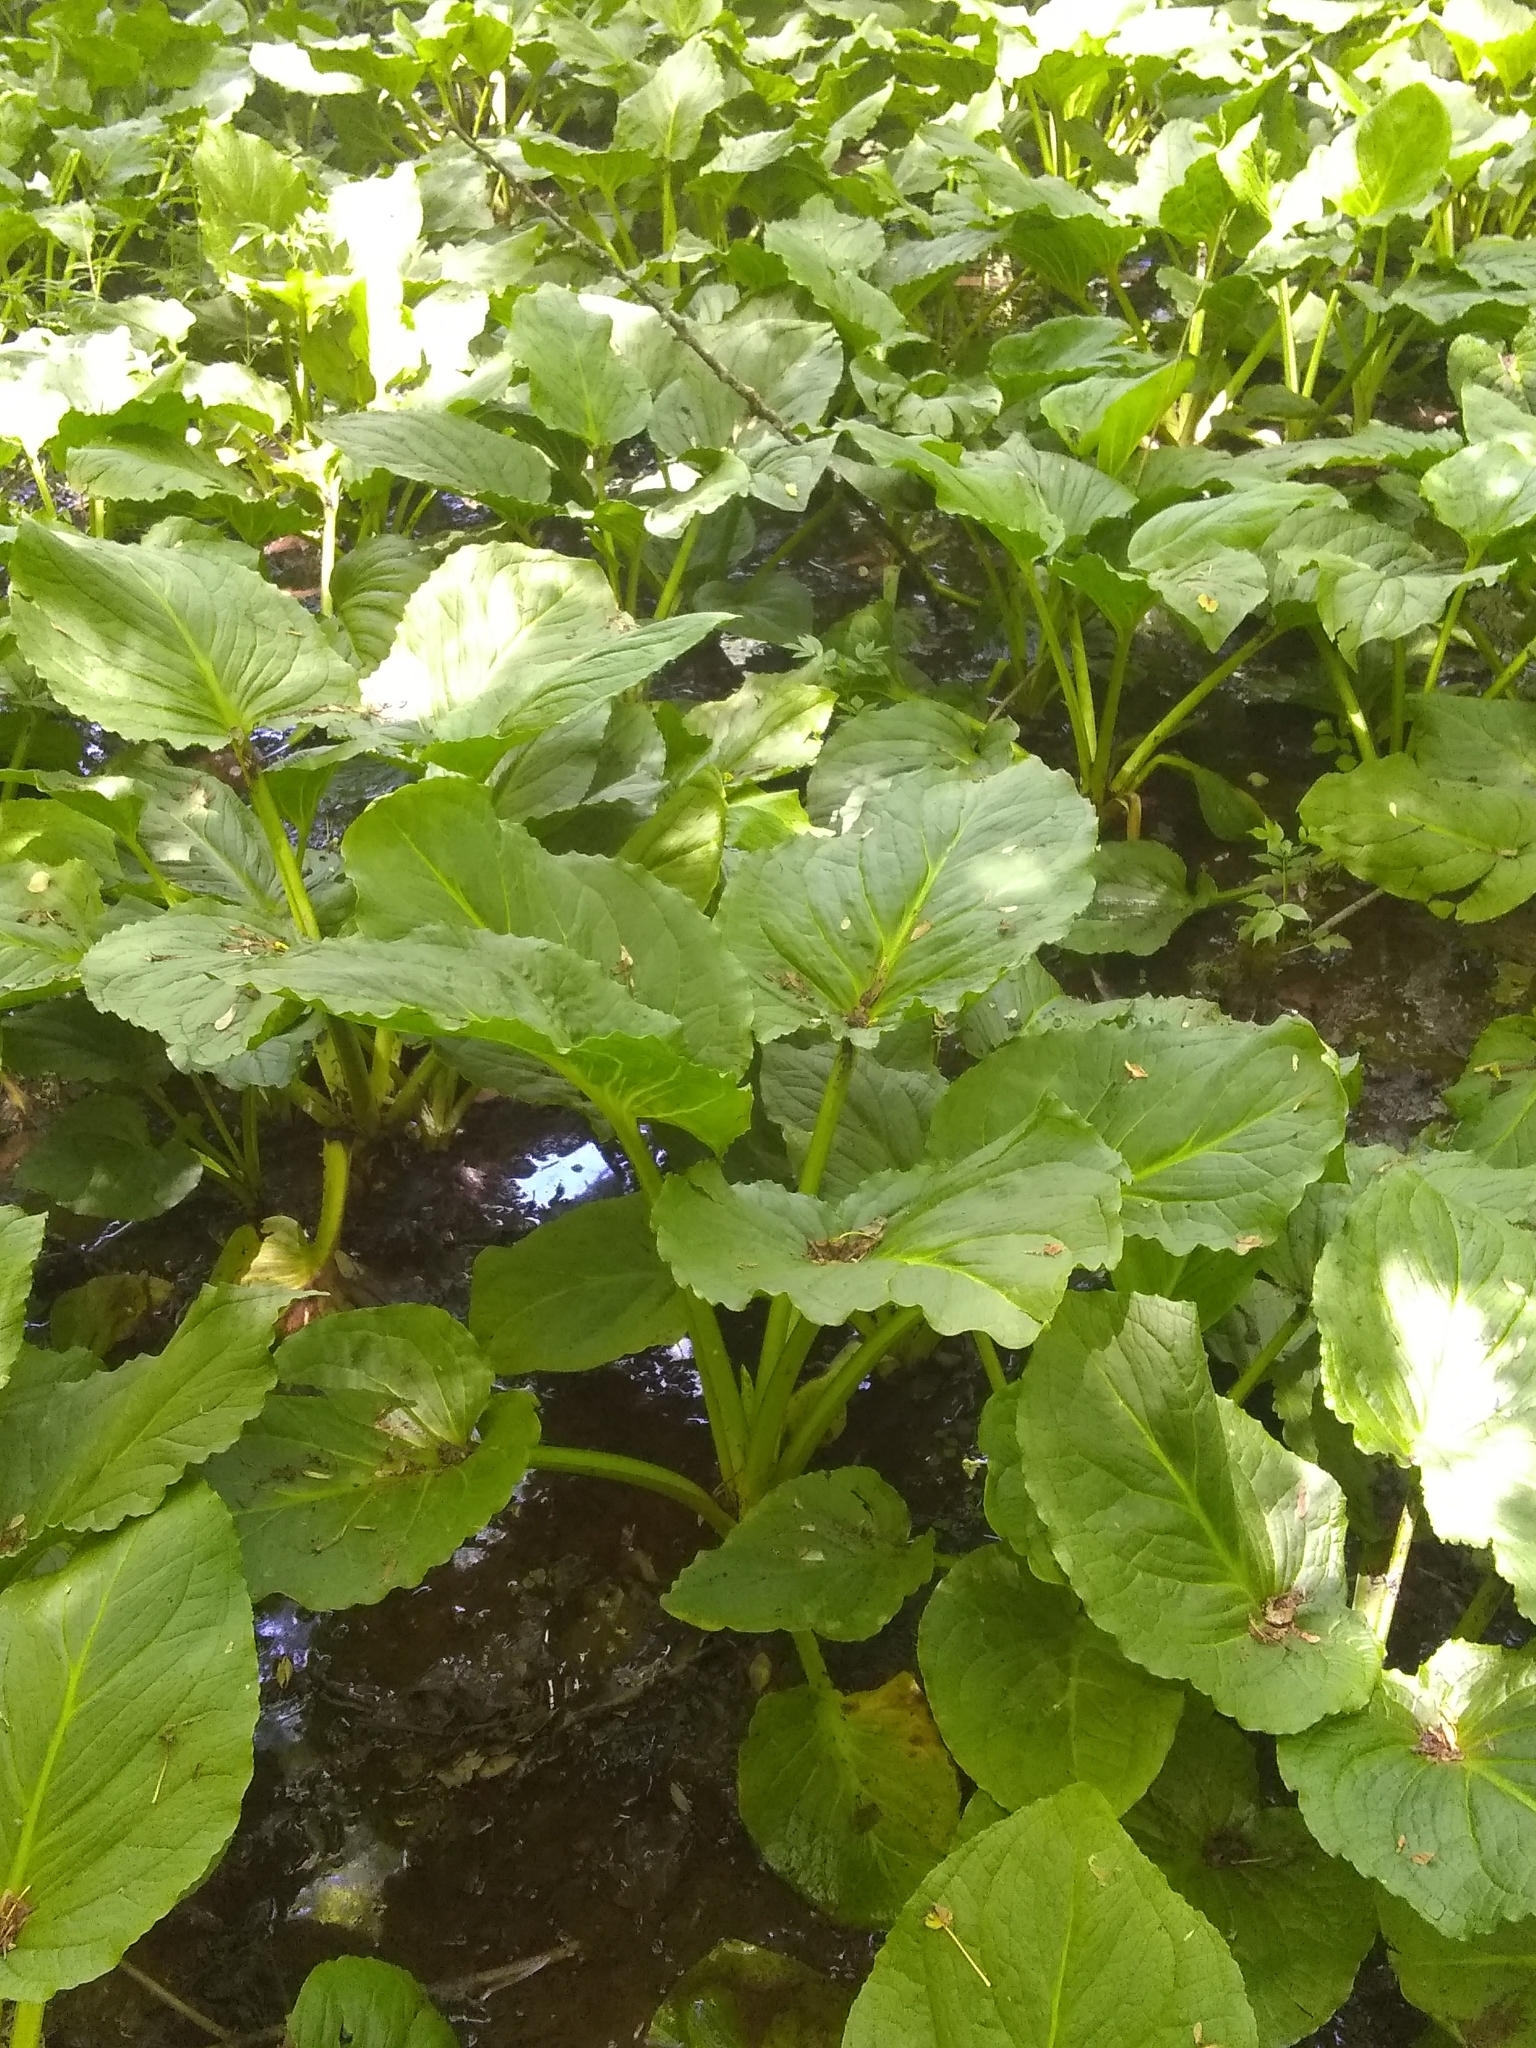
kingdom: Plantae
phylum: Tracheophyta
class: Liliopsida
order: Alismatales
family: Araceae
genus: Symplocarpus
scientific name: Symplocarpus foetidus
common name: Eastern skunk cabbage
